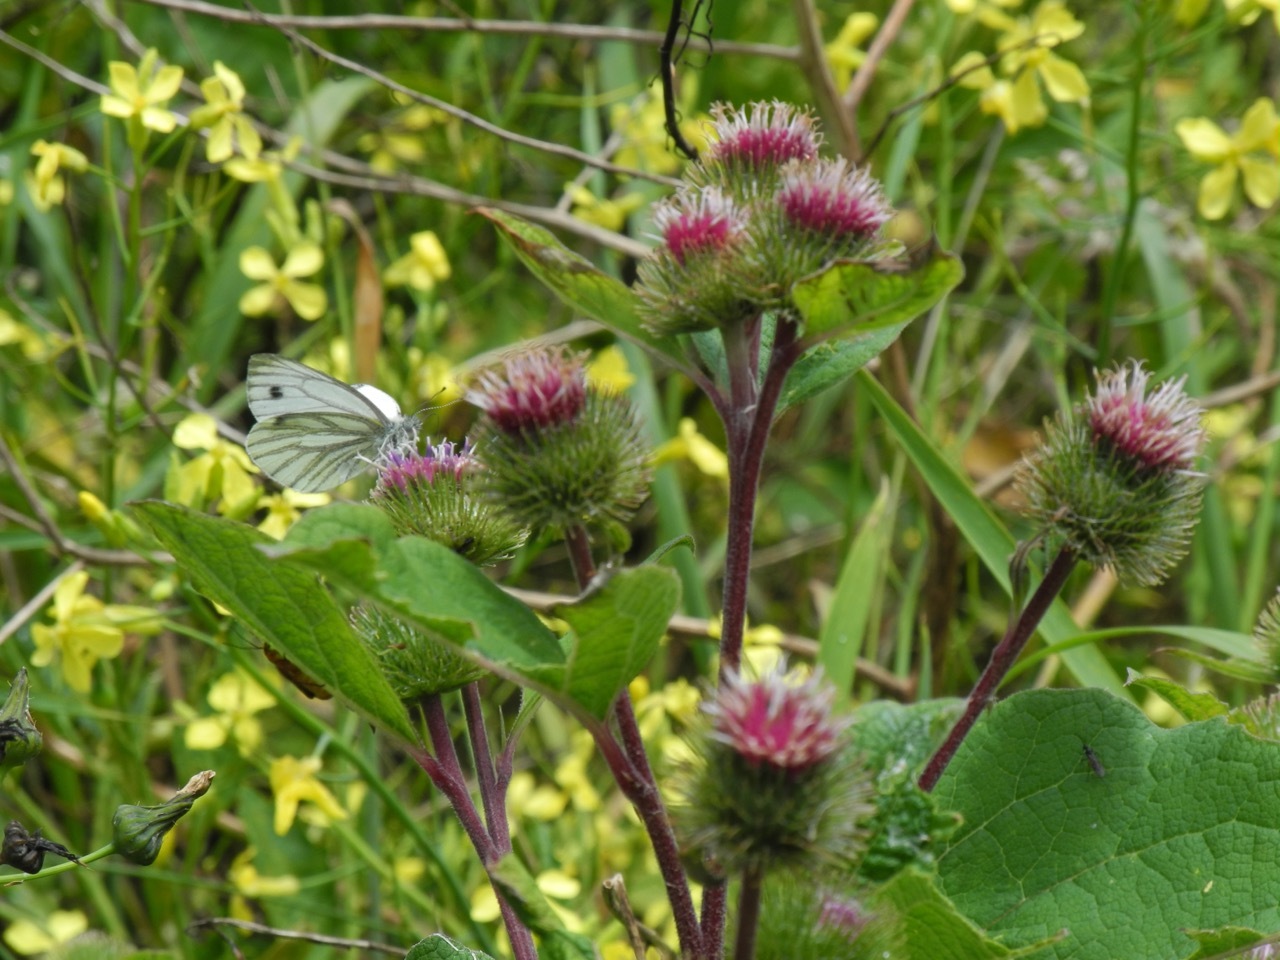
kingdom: Animalia
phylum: Arthropoda
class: Insecta
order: Lepidoptera
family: Pieridae
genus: Pieris
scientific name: Pieris napi
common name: Green-veined white
